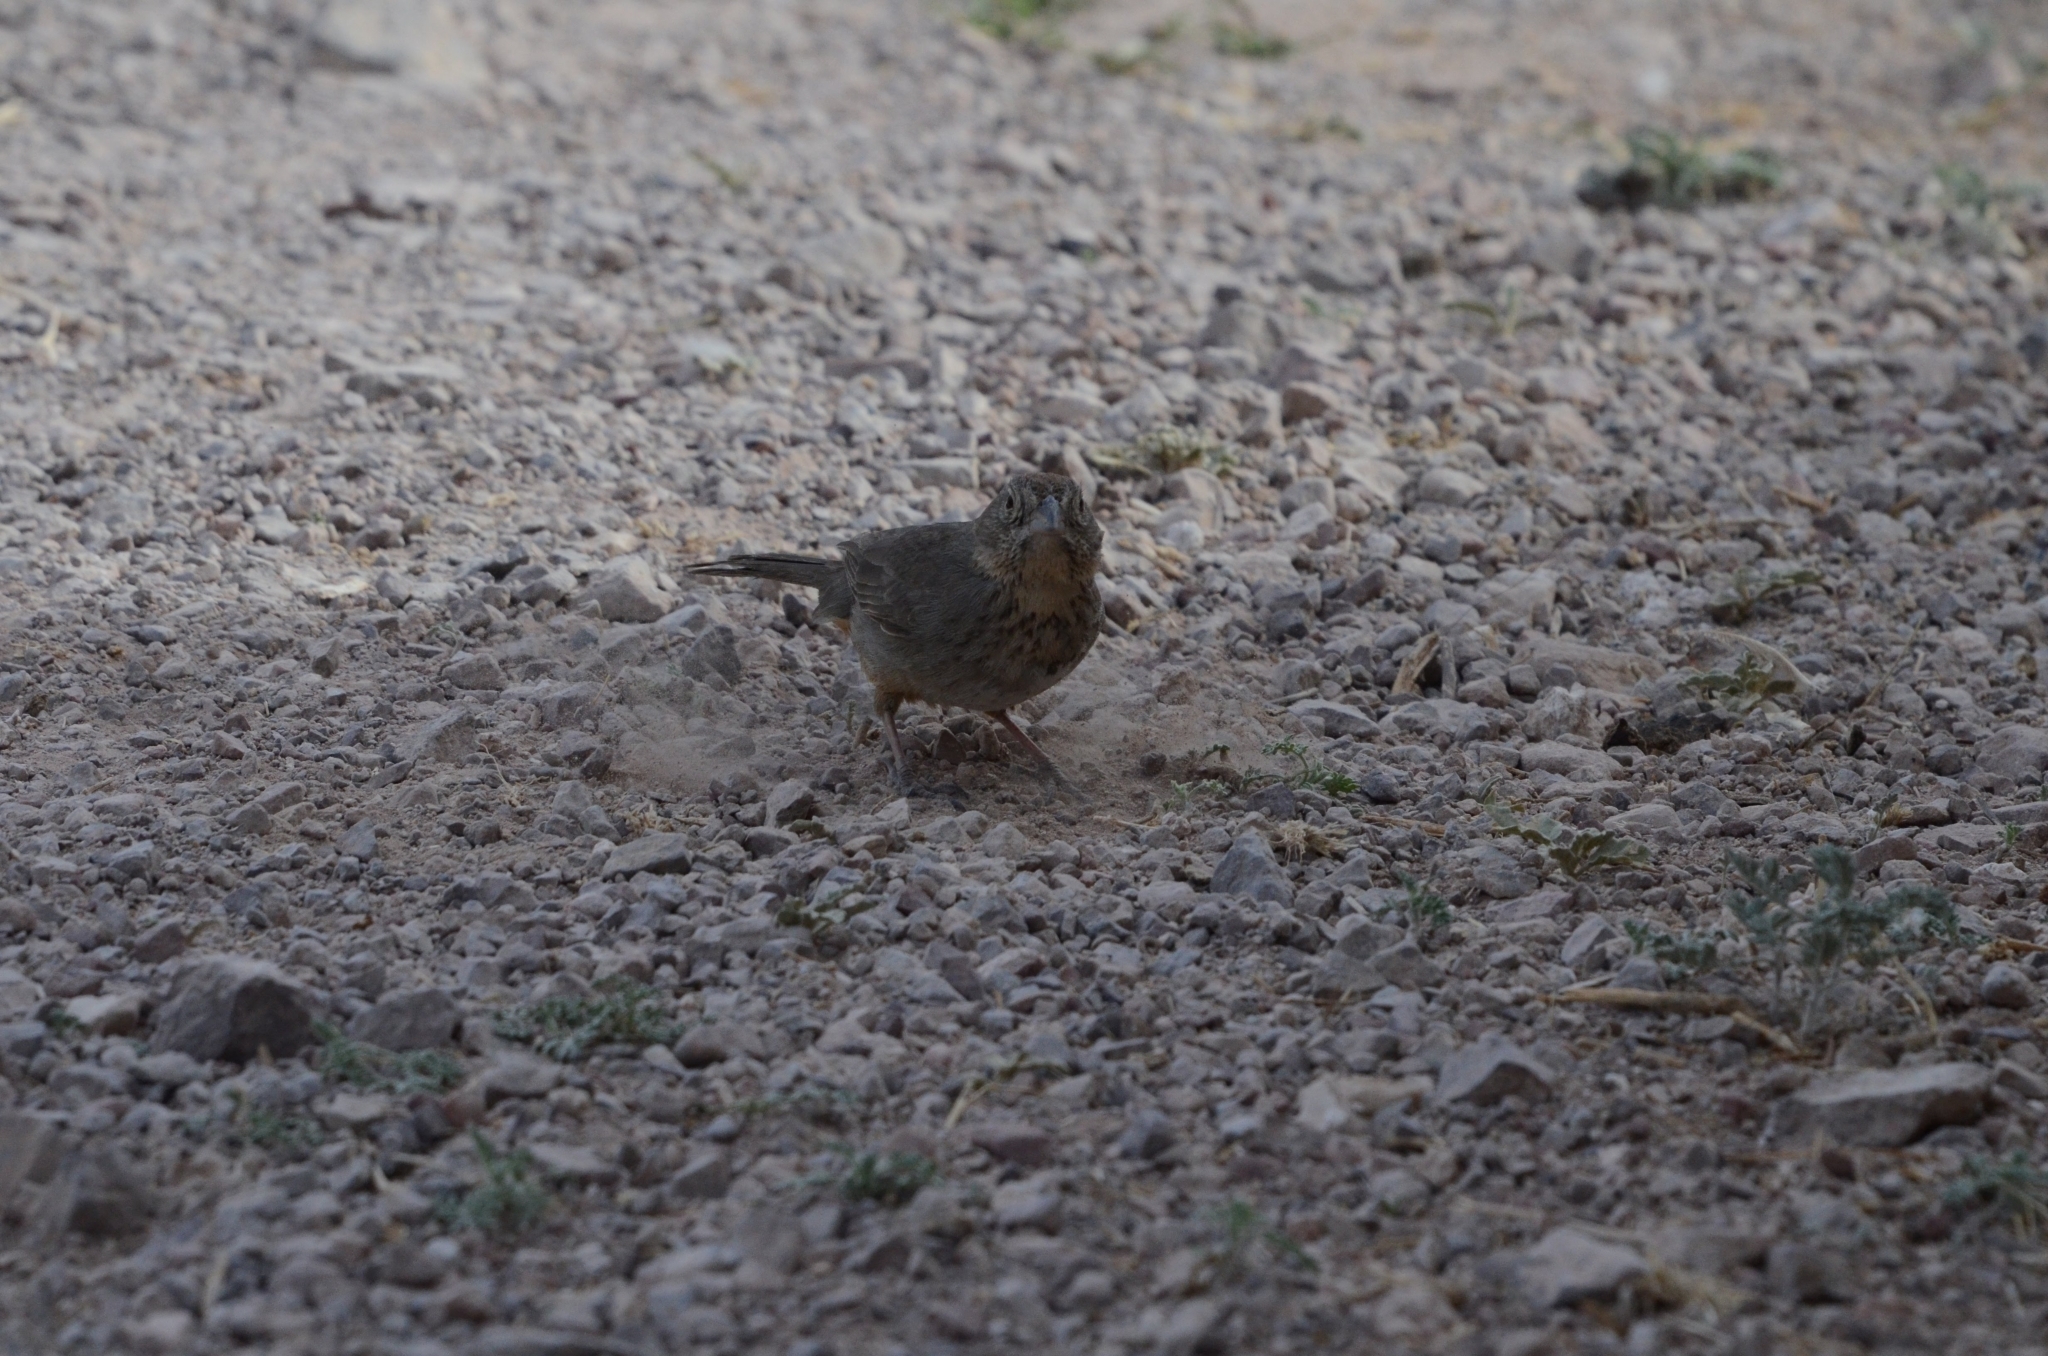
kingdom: Animalia
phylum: Chordata
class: Aves
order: Passeriformes
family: Passerellidae
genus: Melozone
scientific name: Melozone fusca
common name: Canyon towhee
